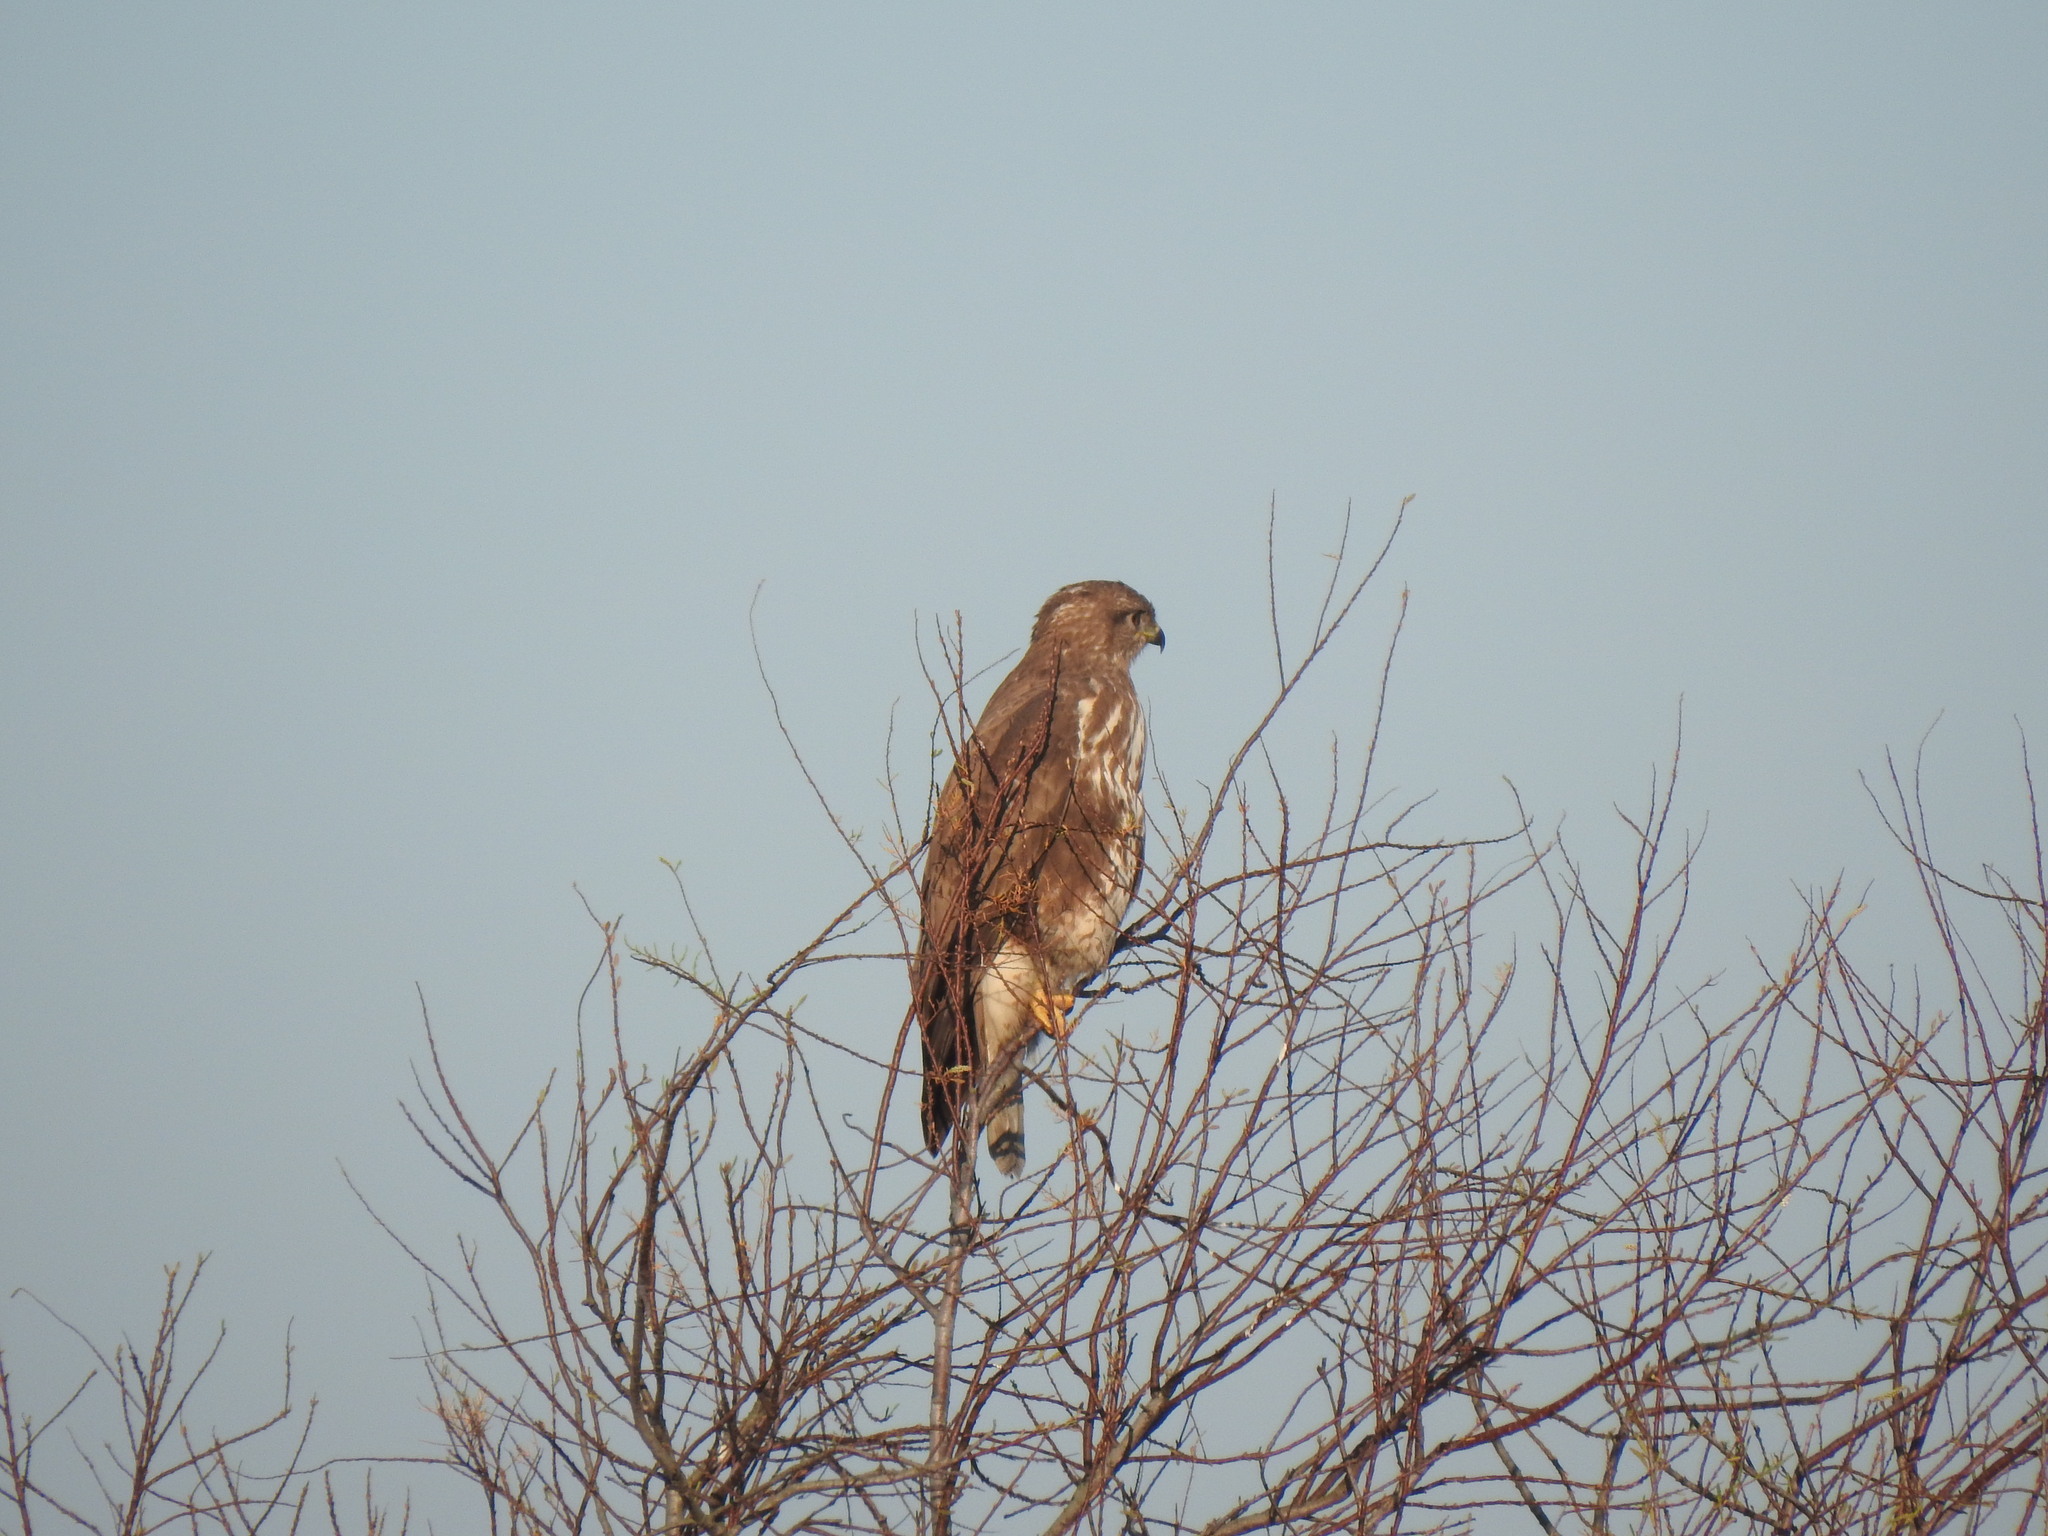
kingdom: Animalia
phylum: Chordata
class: Aves
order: Accipitriformes
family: Accipitridae
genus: Buteo
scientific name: Buteo buteo
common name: Common buzzard
